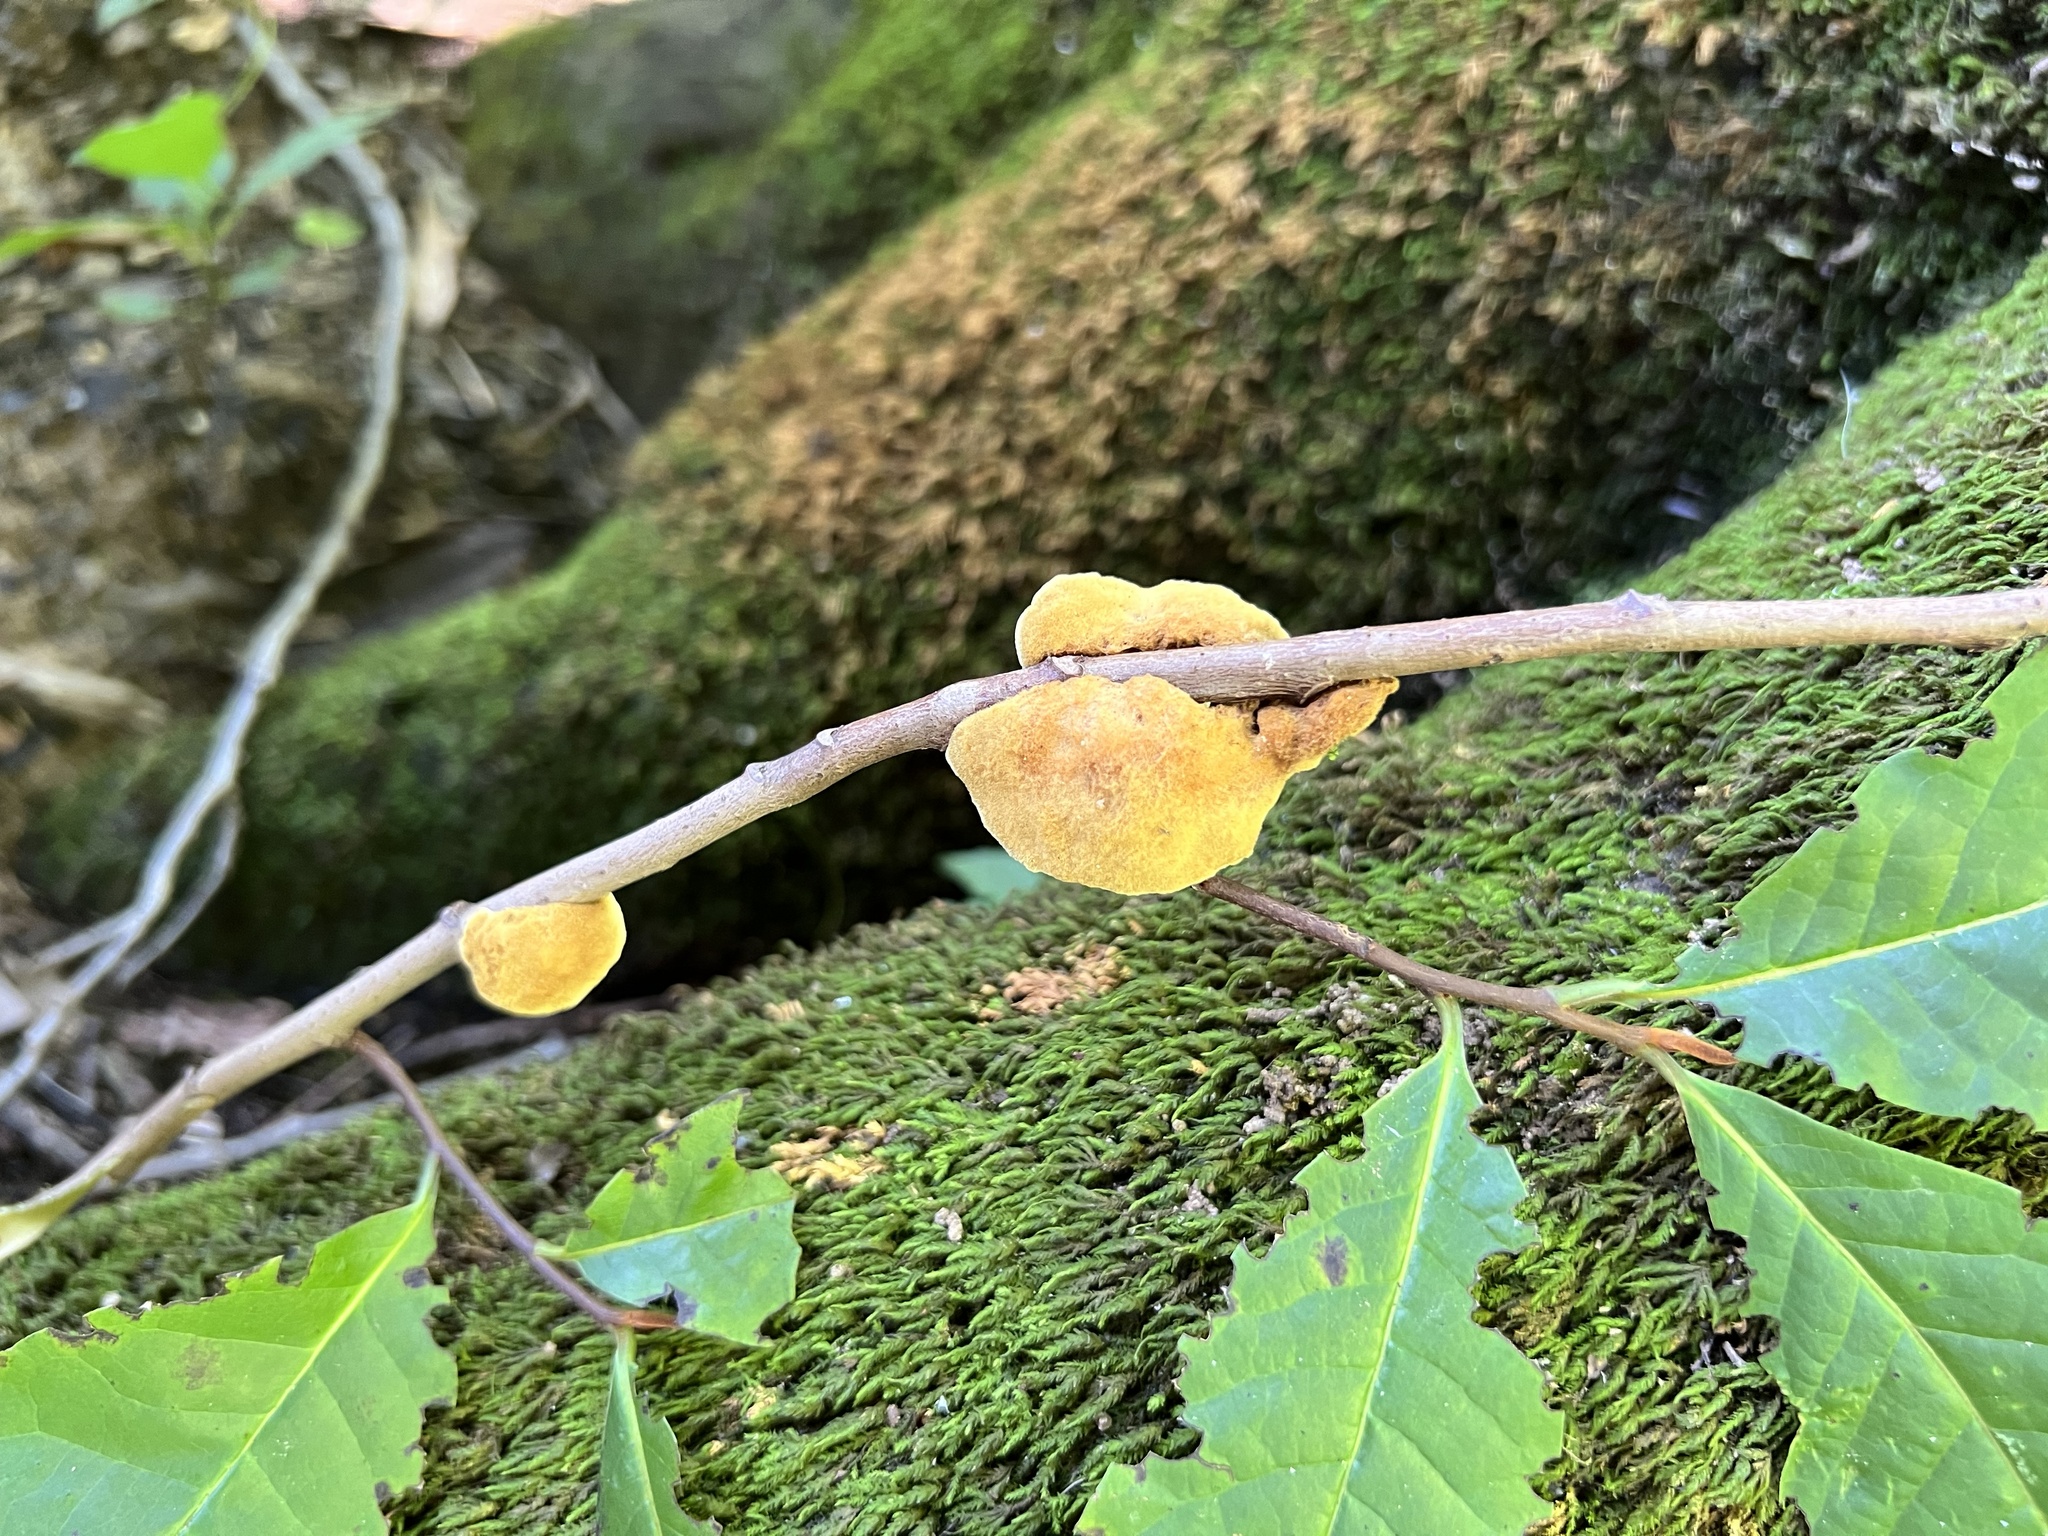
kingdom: Fungi
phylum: Basidiomycota
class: Agaricomycetes
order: Hymenochaetales
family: Hymenochaetaceae
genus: Phylloporia
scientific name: Phylloporia amplectens
